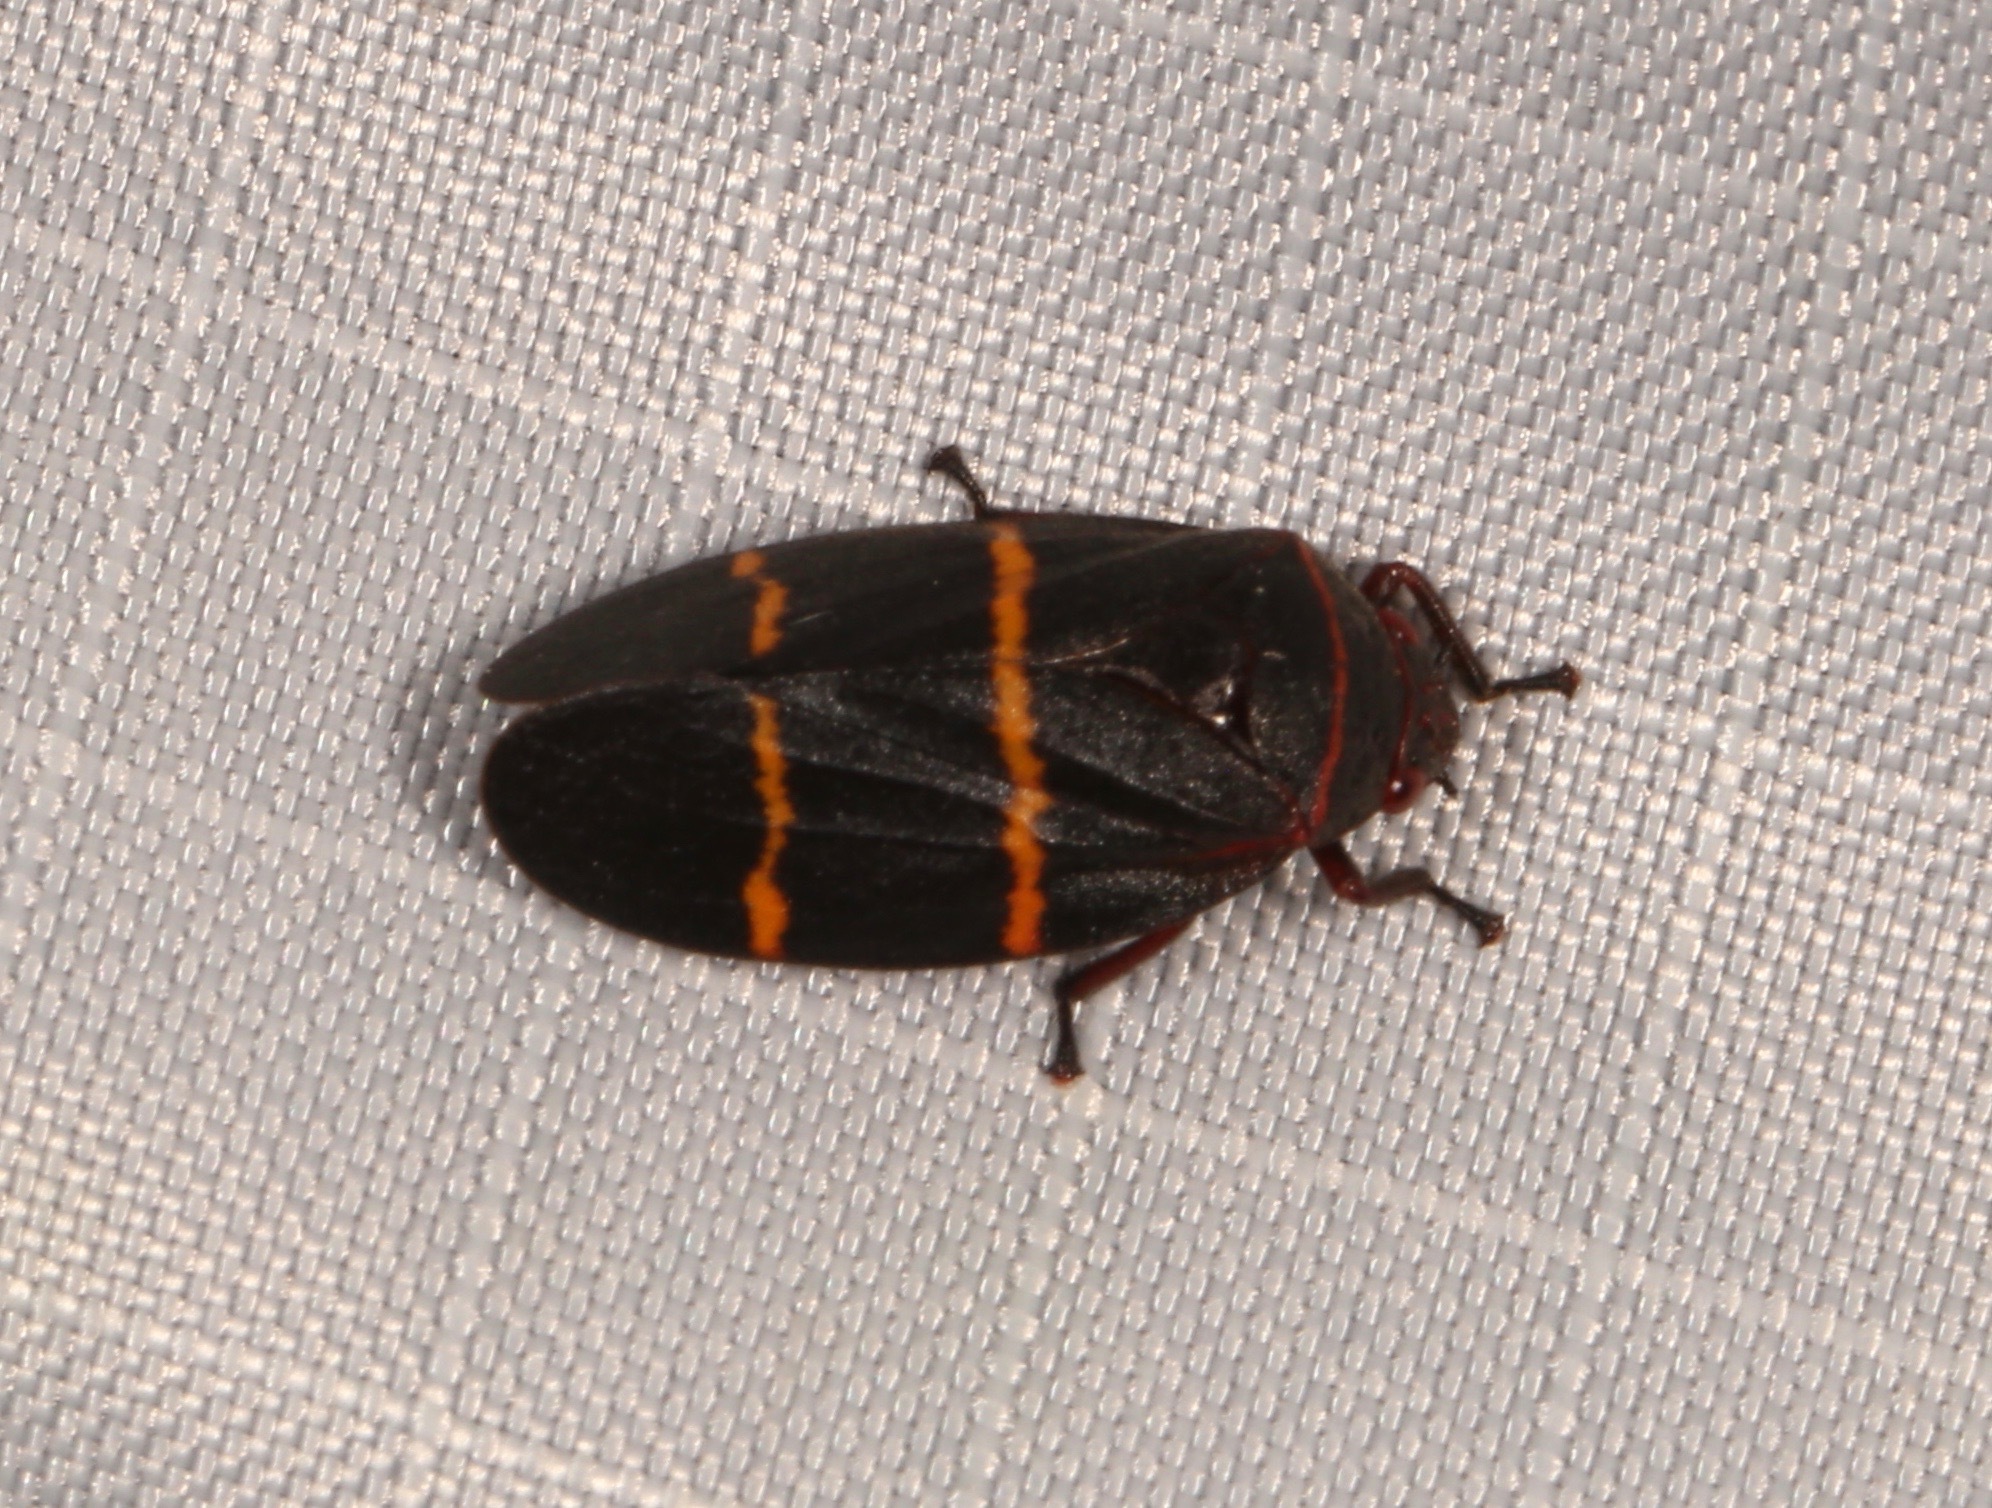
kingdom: Animalia
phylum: Arthropoda
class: Insecta
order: Hemiptera
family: Cercopidae
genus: Prosapia
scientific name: Prosapia bicincta
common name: Twolined spittlebug
